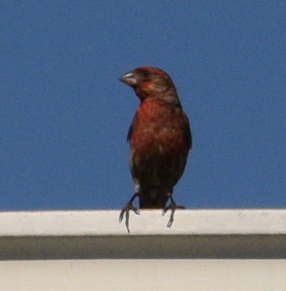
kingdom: Animalia
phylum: Chordata
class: Aves
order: Passeriformes
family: Fringillidae
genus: Haemorhous
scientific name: Haemorhous mexicanus
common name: House finch
